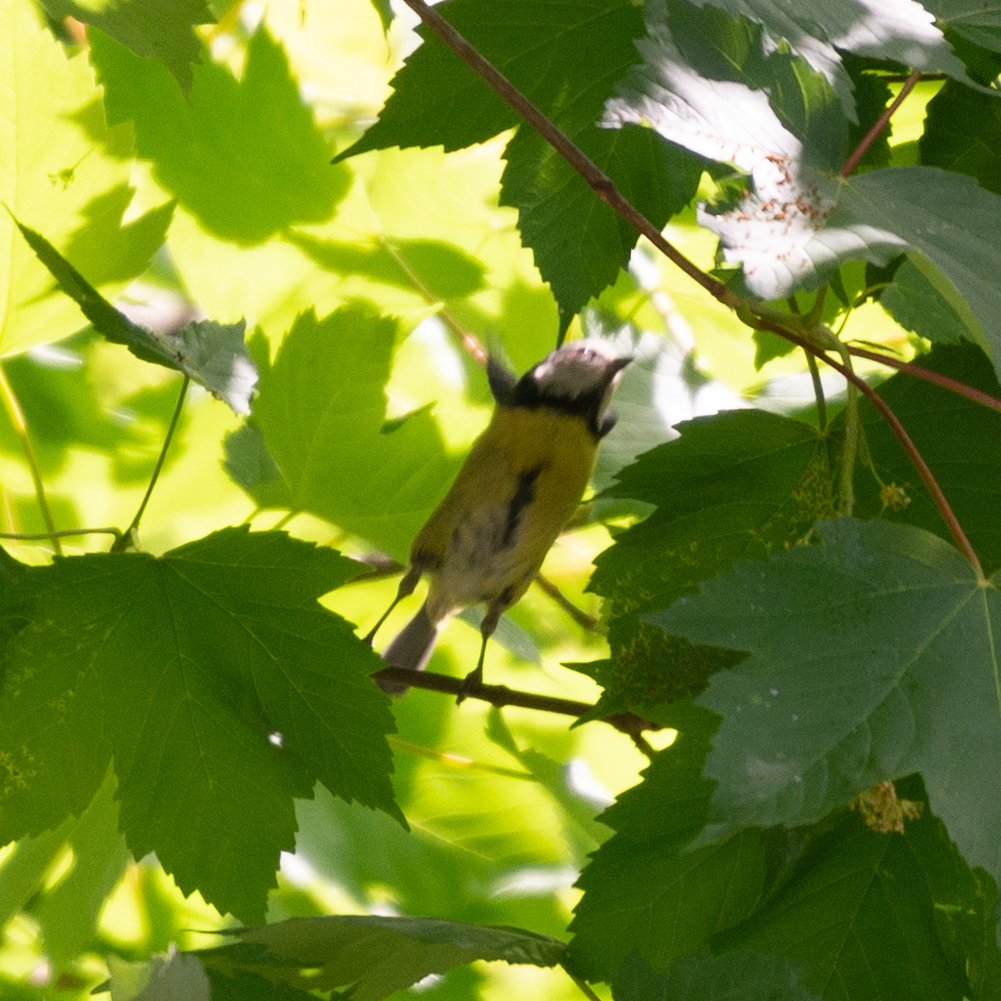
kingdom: Animalia
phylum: Chordata
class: Aves
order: Passeriformes
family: Paridae
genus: Cyanistes
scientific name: Cyanistes caeruleus
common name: Eurasian blue tit
